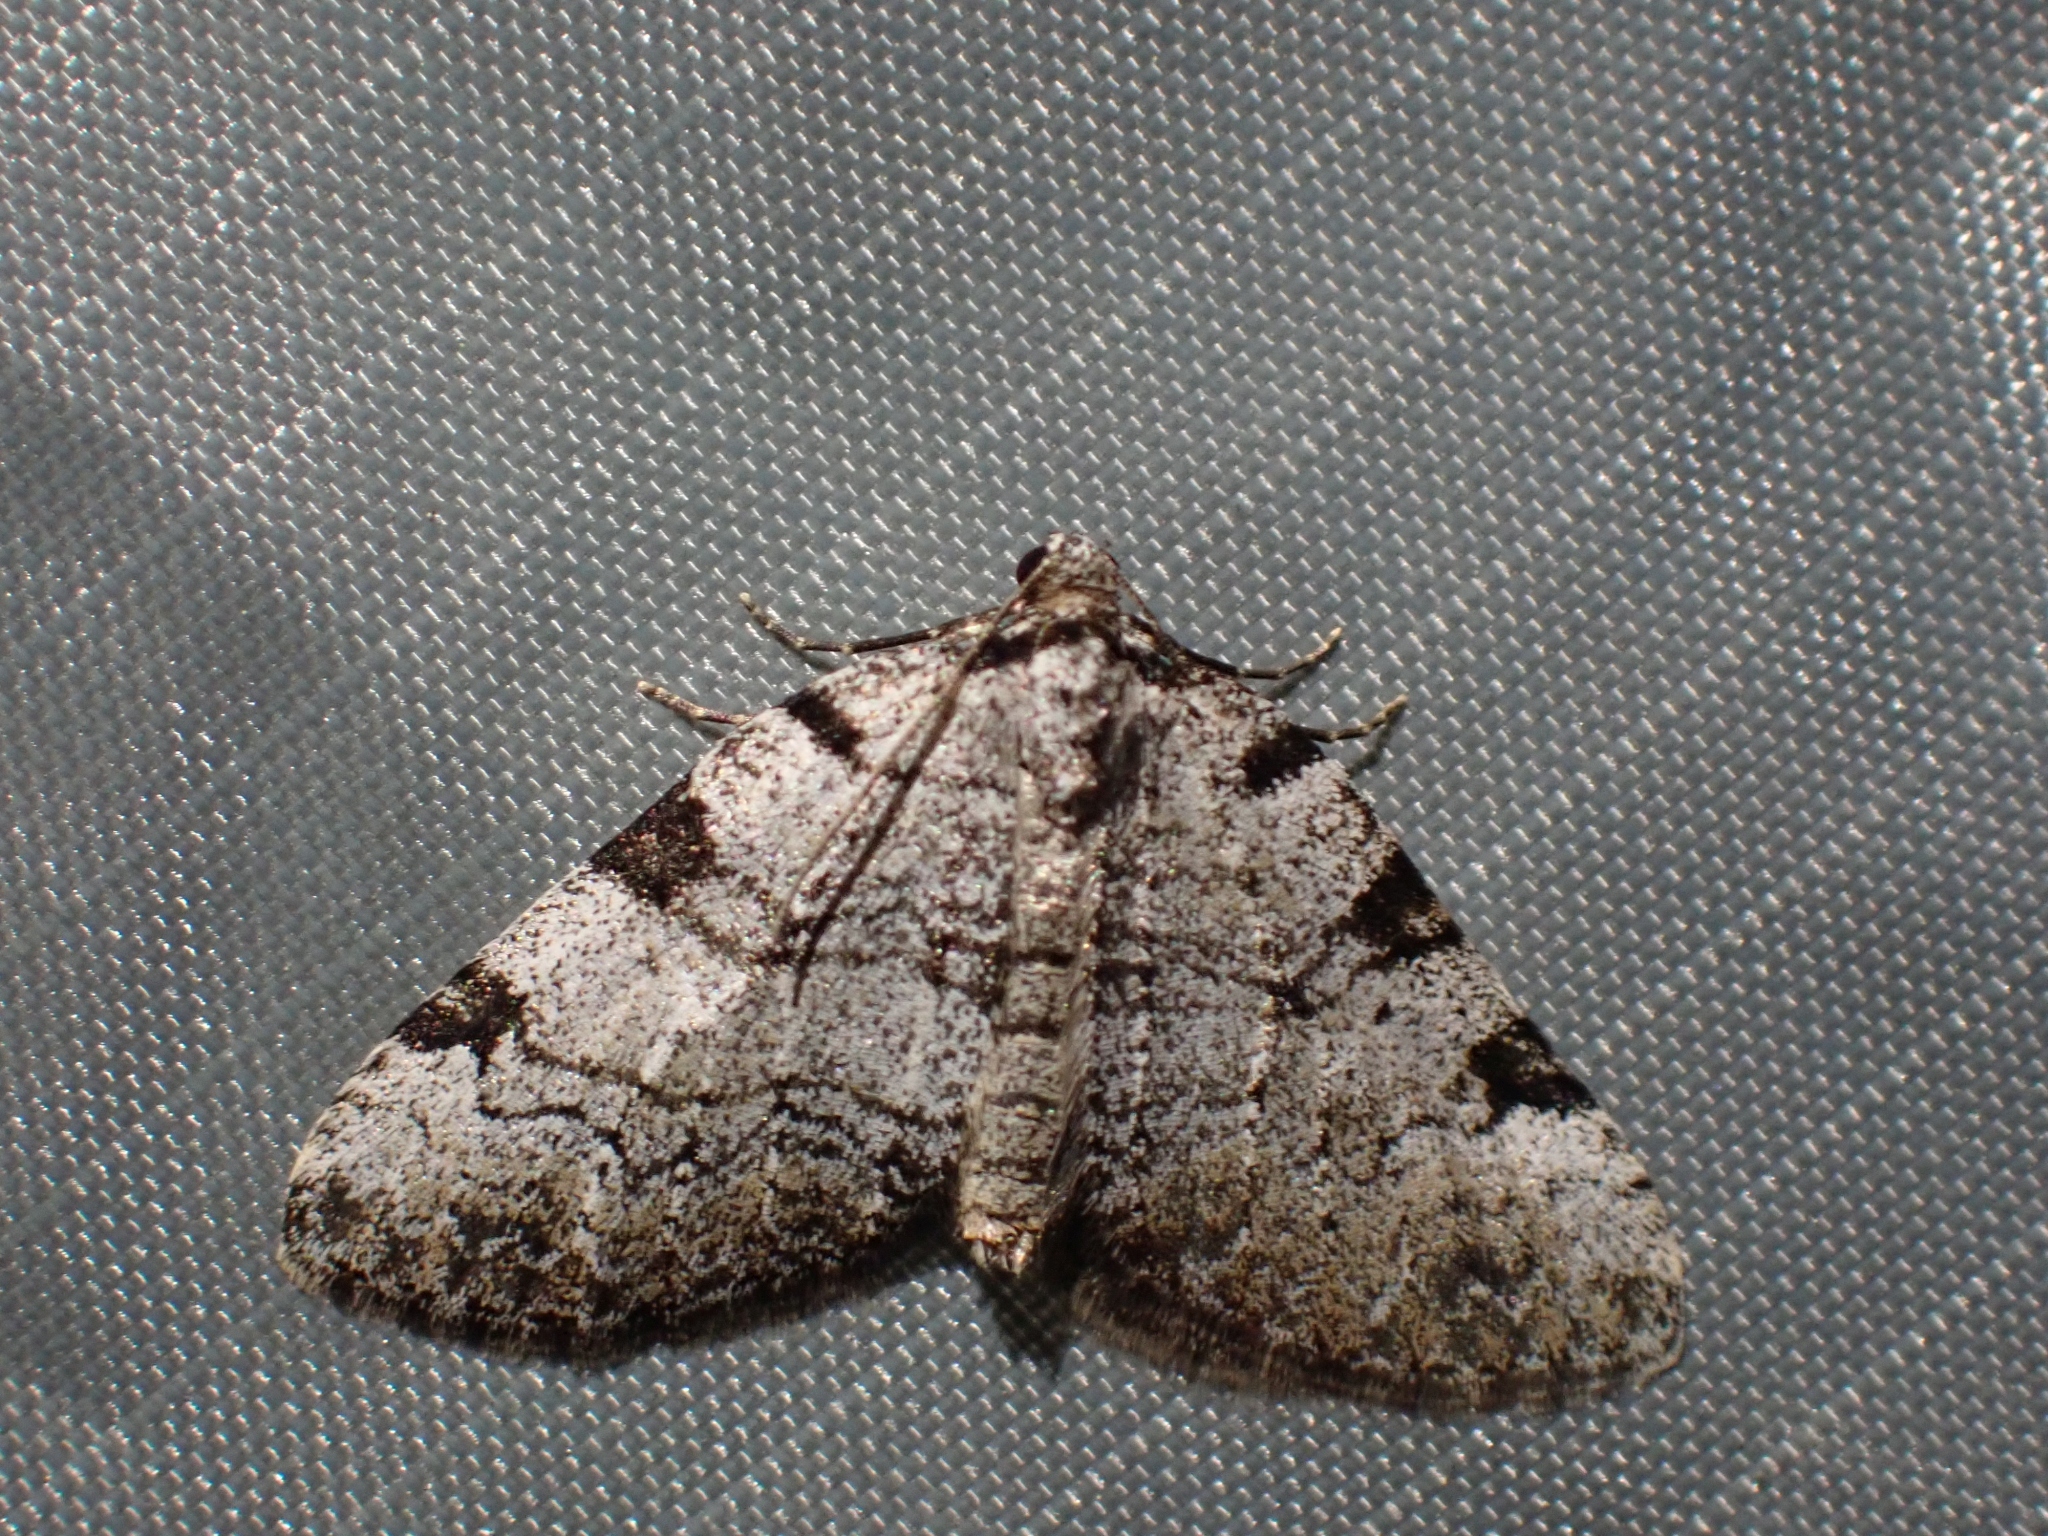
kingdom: Animalia
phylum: Arthropoda
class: Insecta
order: Lepidoptera
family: Geometridae
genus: Perizoma
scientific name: Perizoma costiguttata
